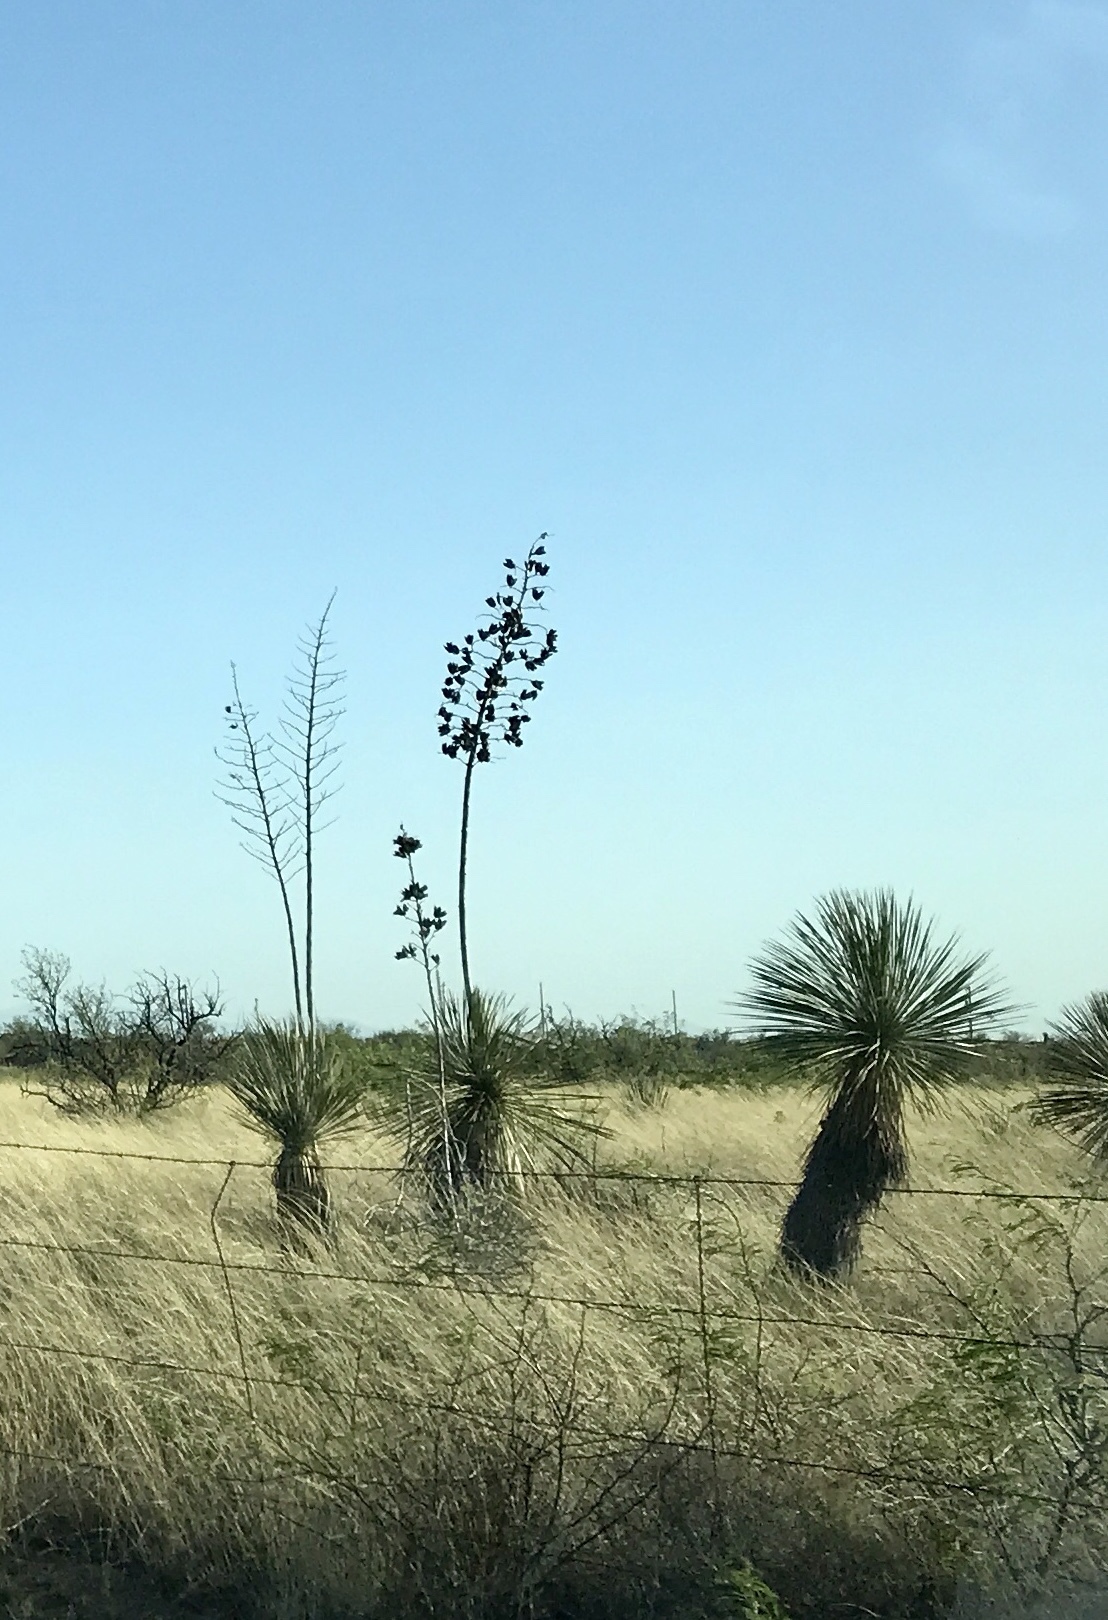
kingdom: Plantae
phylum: Tracheophyta
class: Liliopsida
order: Asparagales
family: Asparagaceae
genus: Yucca
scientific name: Yucca elata
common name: Palmella
